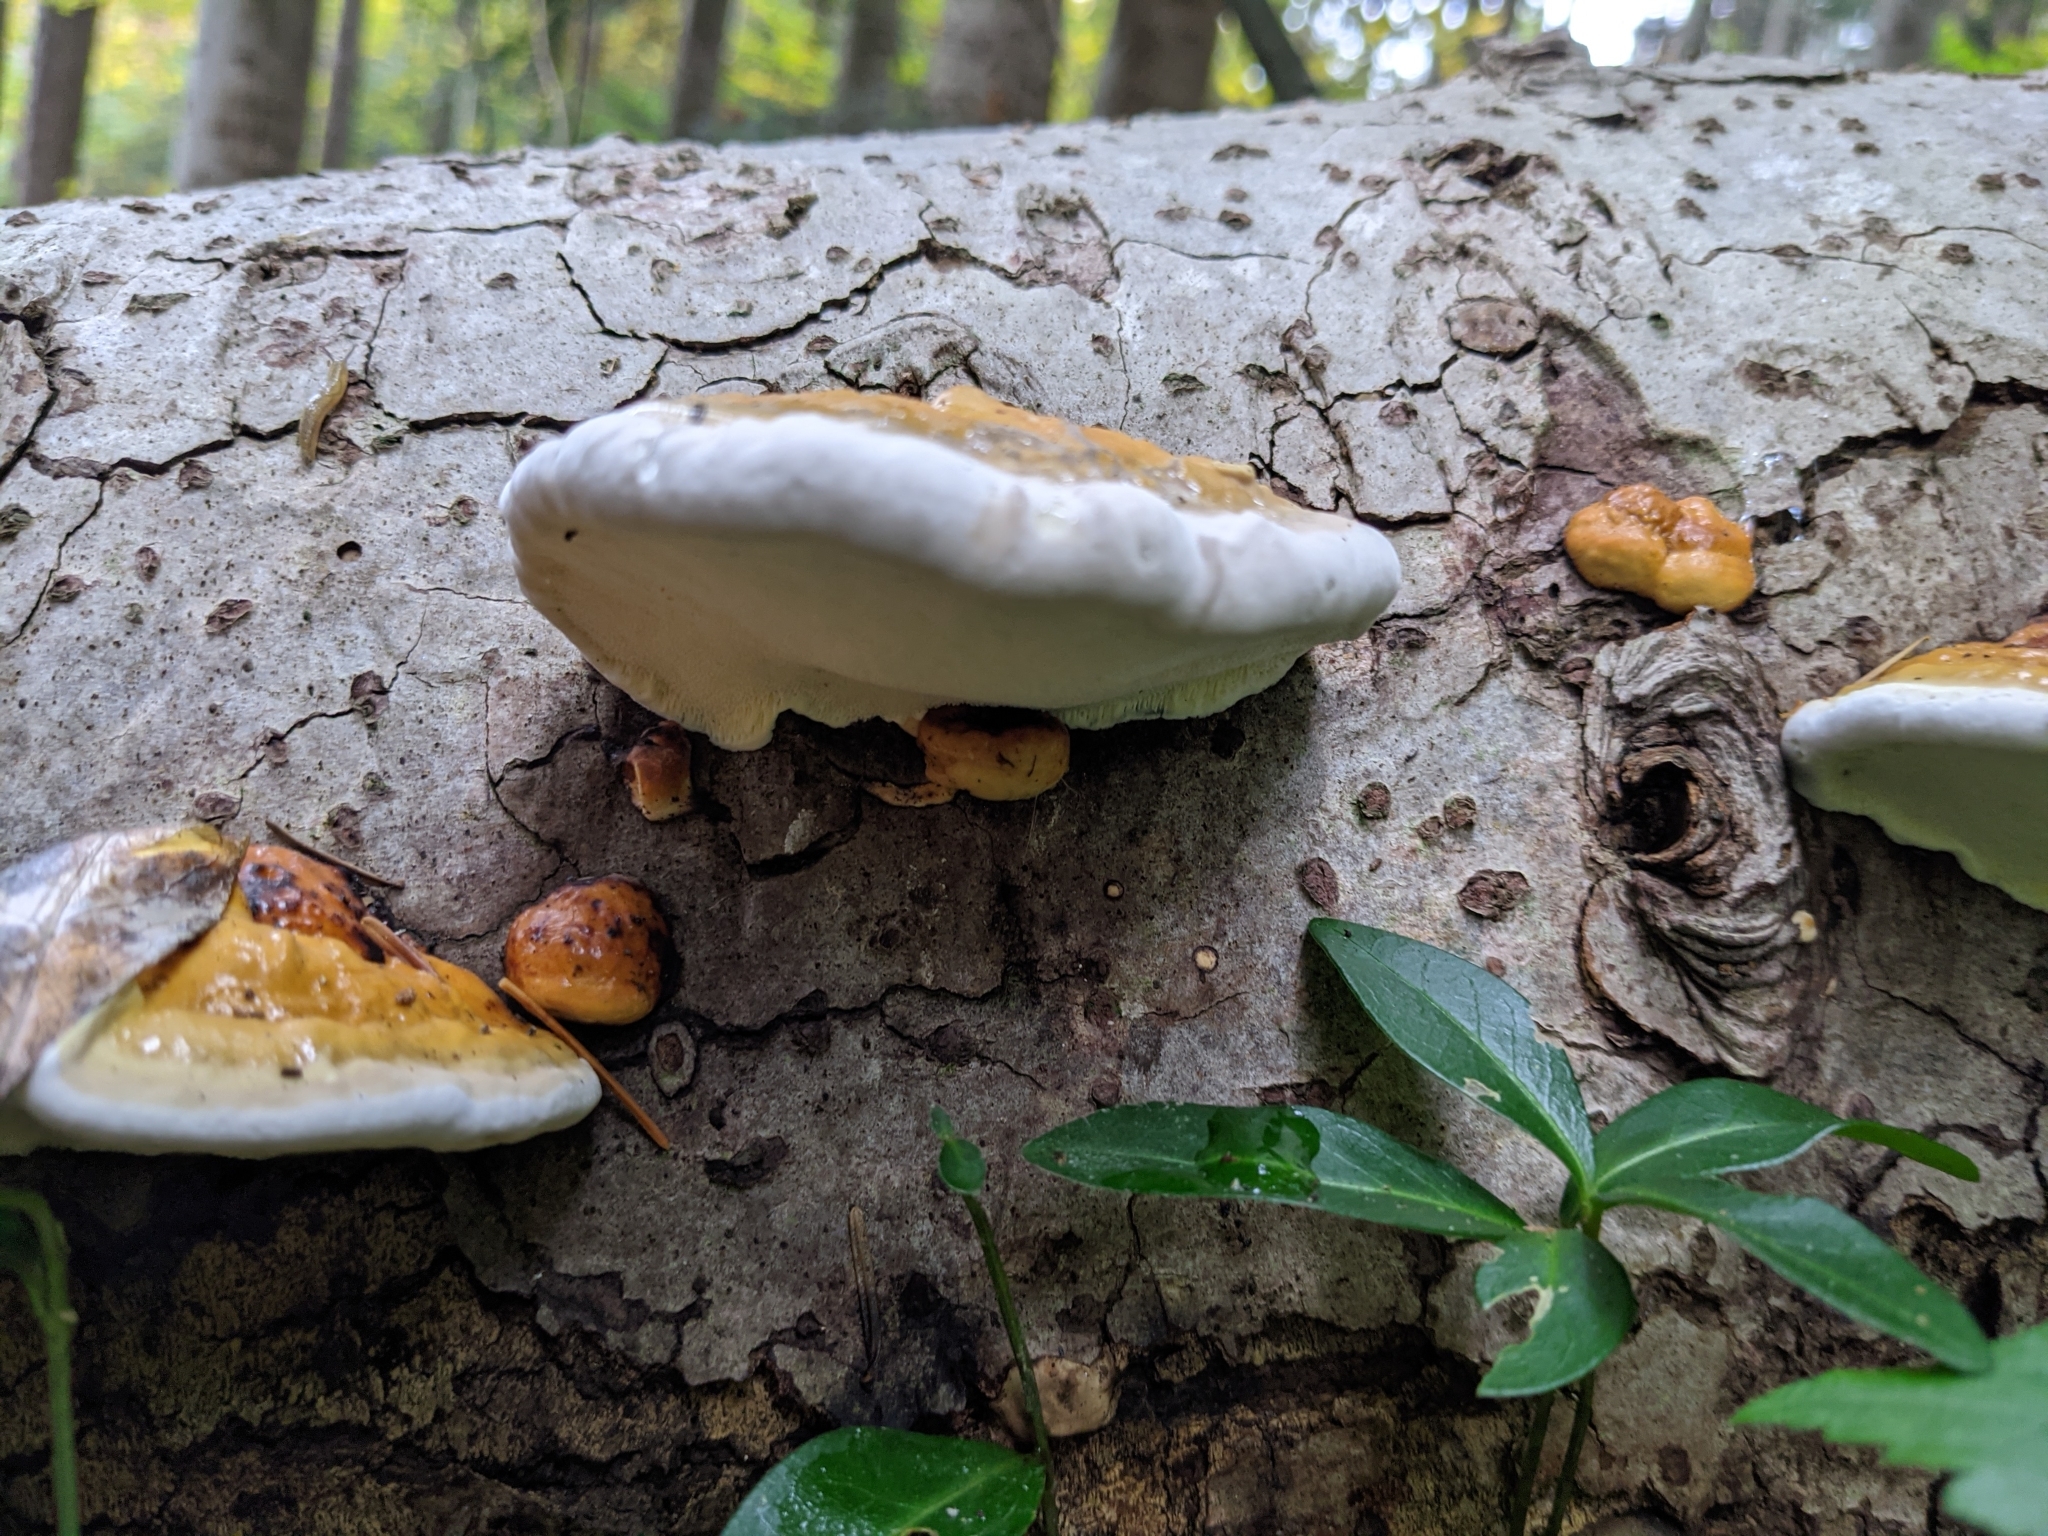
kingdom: Fungi
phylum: Basidiomycota
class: Agaricomycetes
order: Polyporales
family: Fomitopsidaceae
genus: Fomitopsis
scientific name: Fomitopsis pinicola
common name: Red-belted bracket
